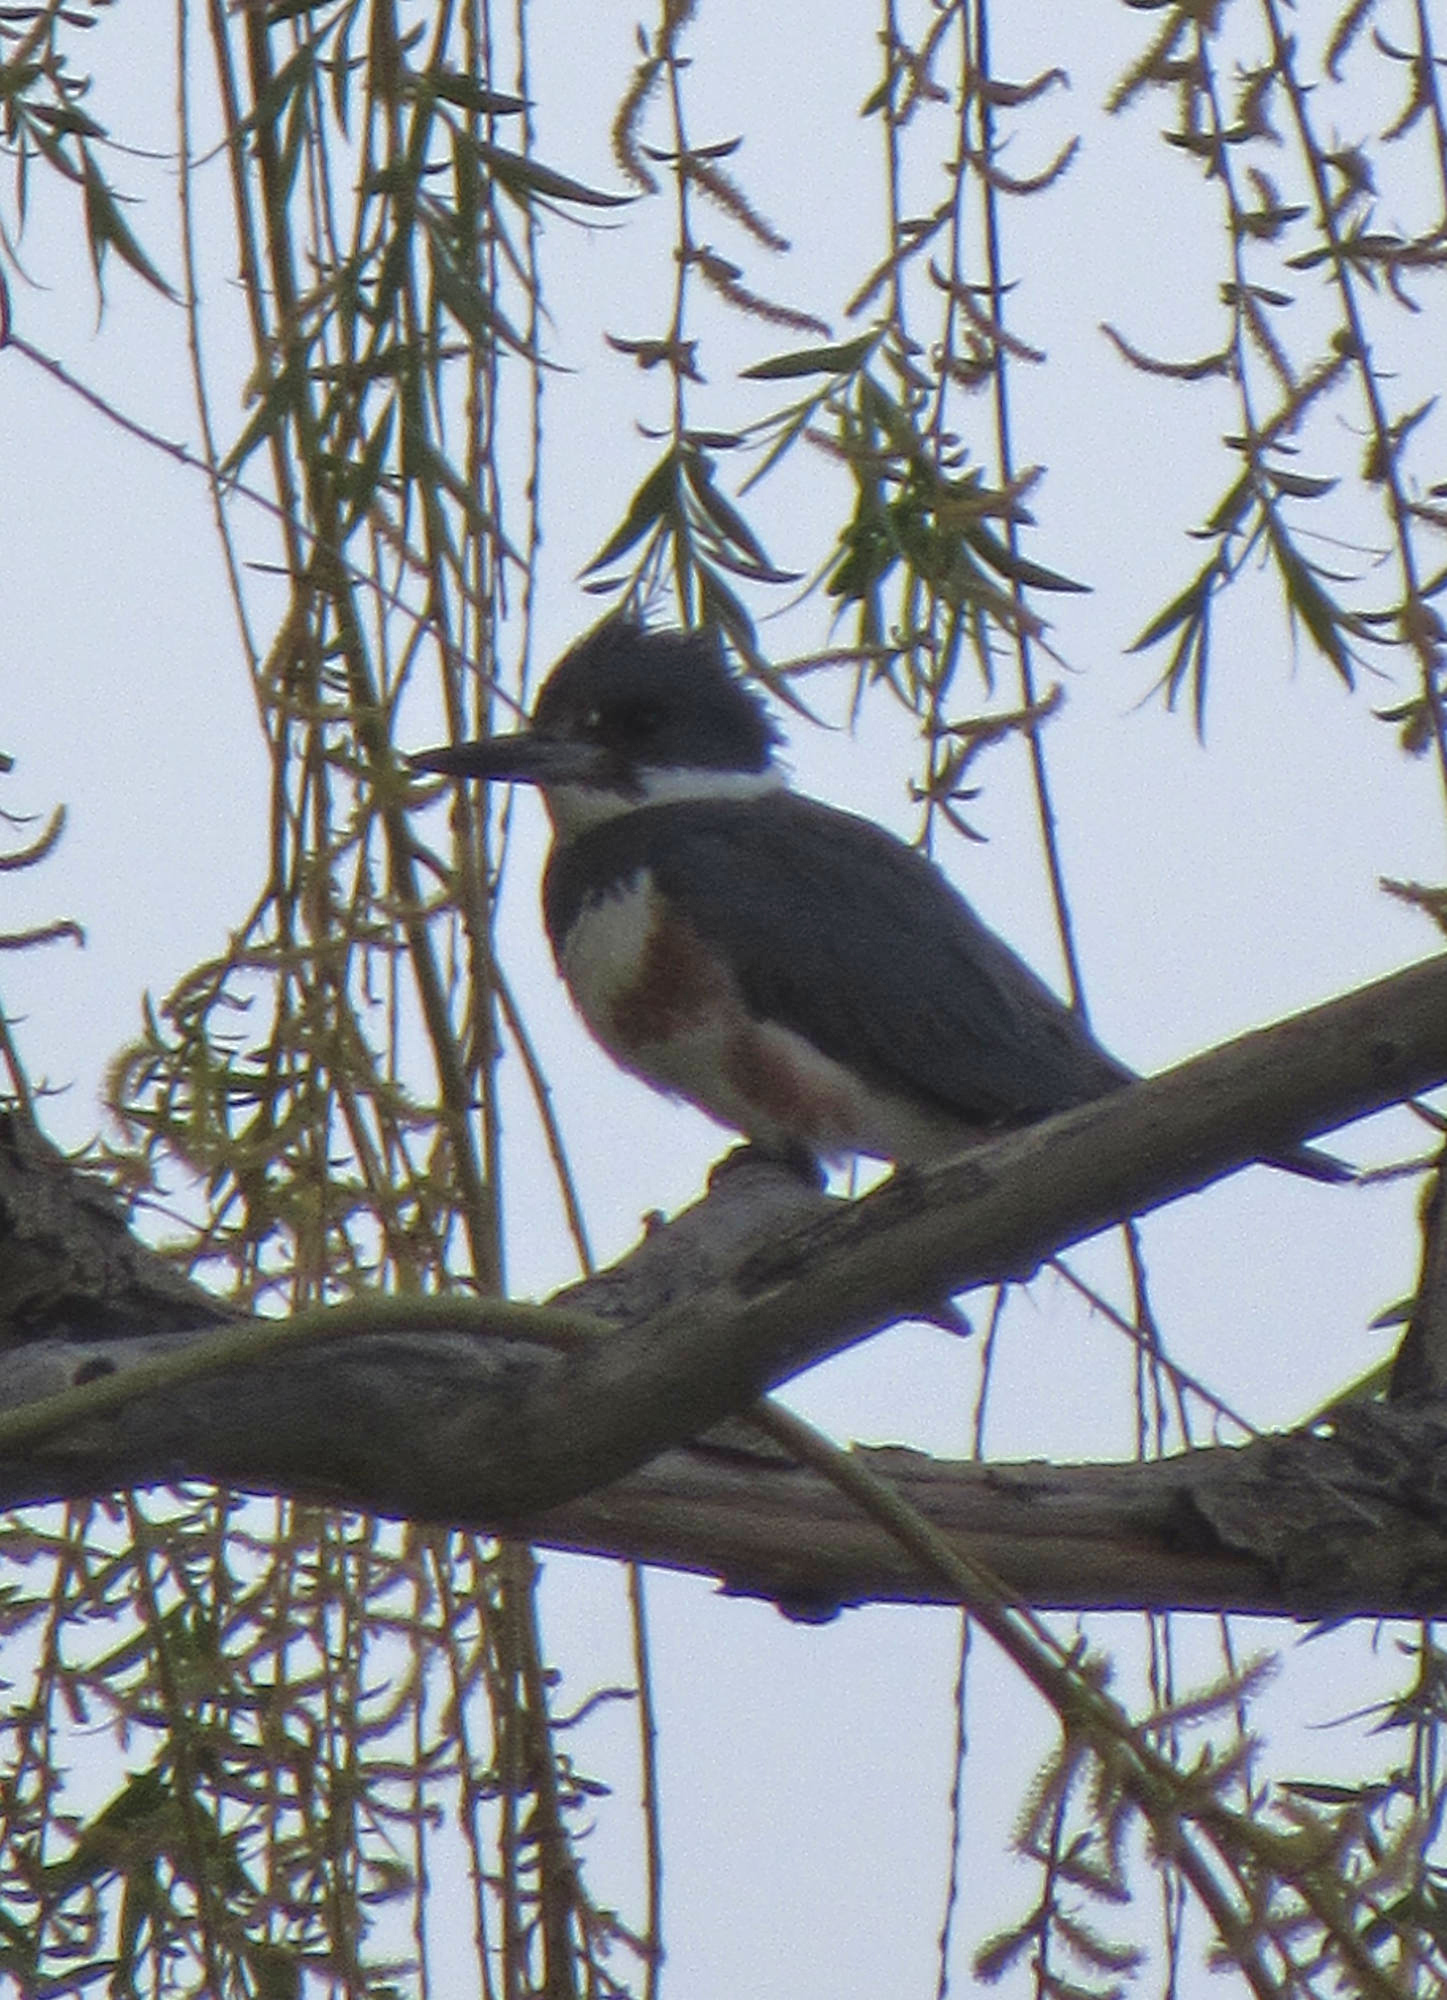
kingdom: Animalia
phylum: Chordata
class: Aves
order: Coraciiformes
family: Alcedinidae
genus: Megaceryle
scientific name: Megaceryle alcyon
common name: Belted kingfisher
